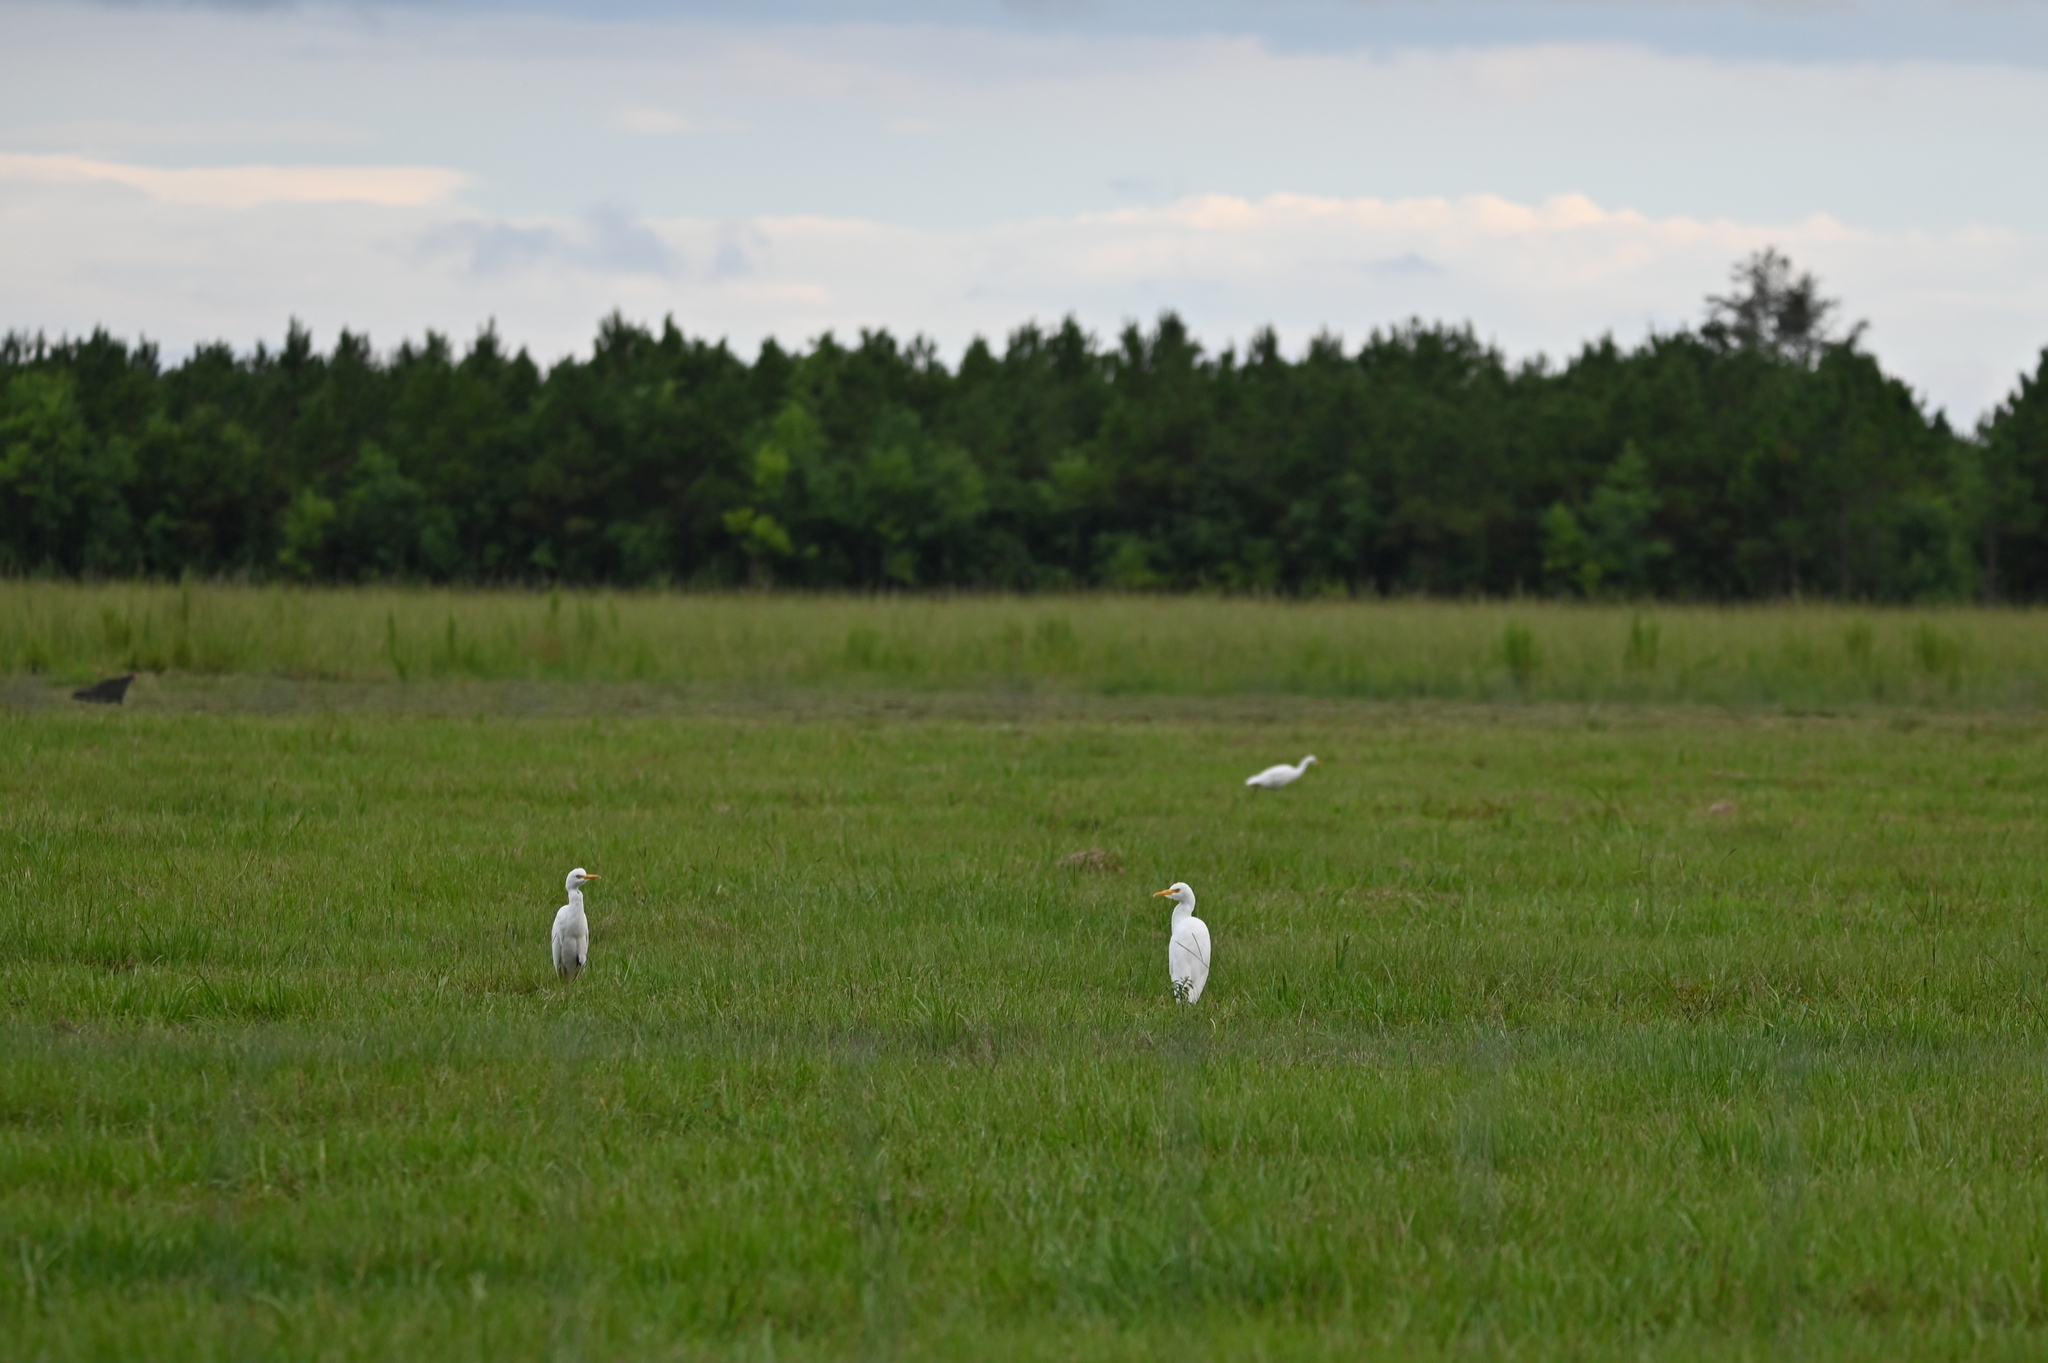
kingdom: Animalia
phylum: Chordata
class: Aves
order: Pelecaniformes
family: Ardeidae
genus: Bubulcus
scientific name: Bubulcus ibis
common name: Cattle egret
